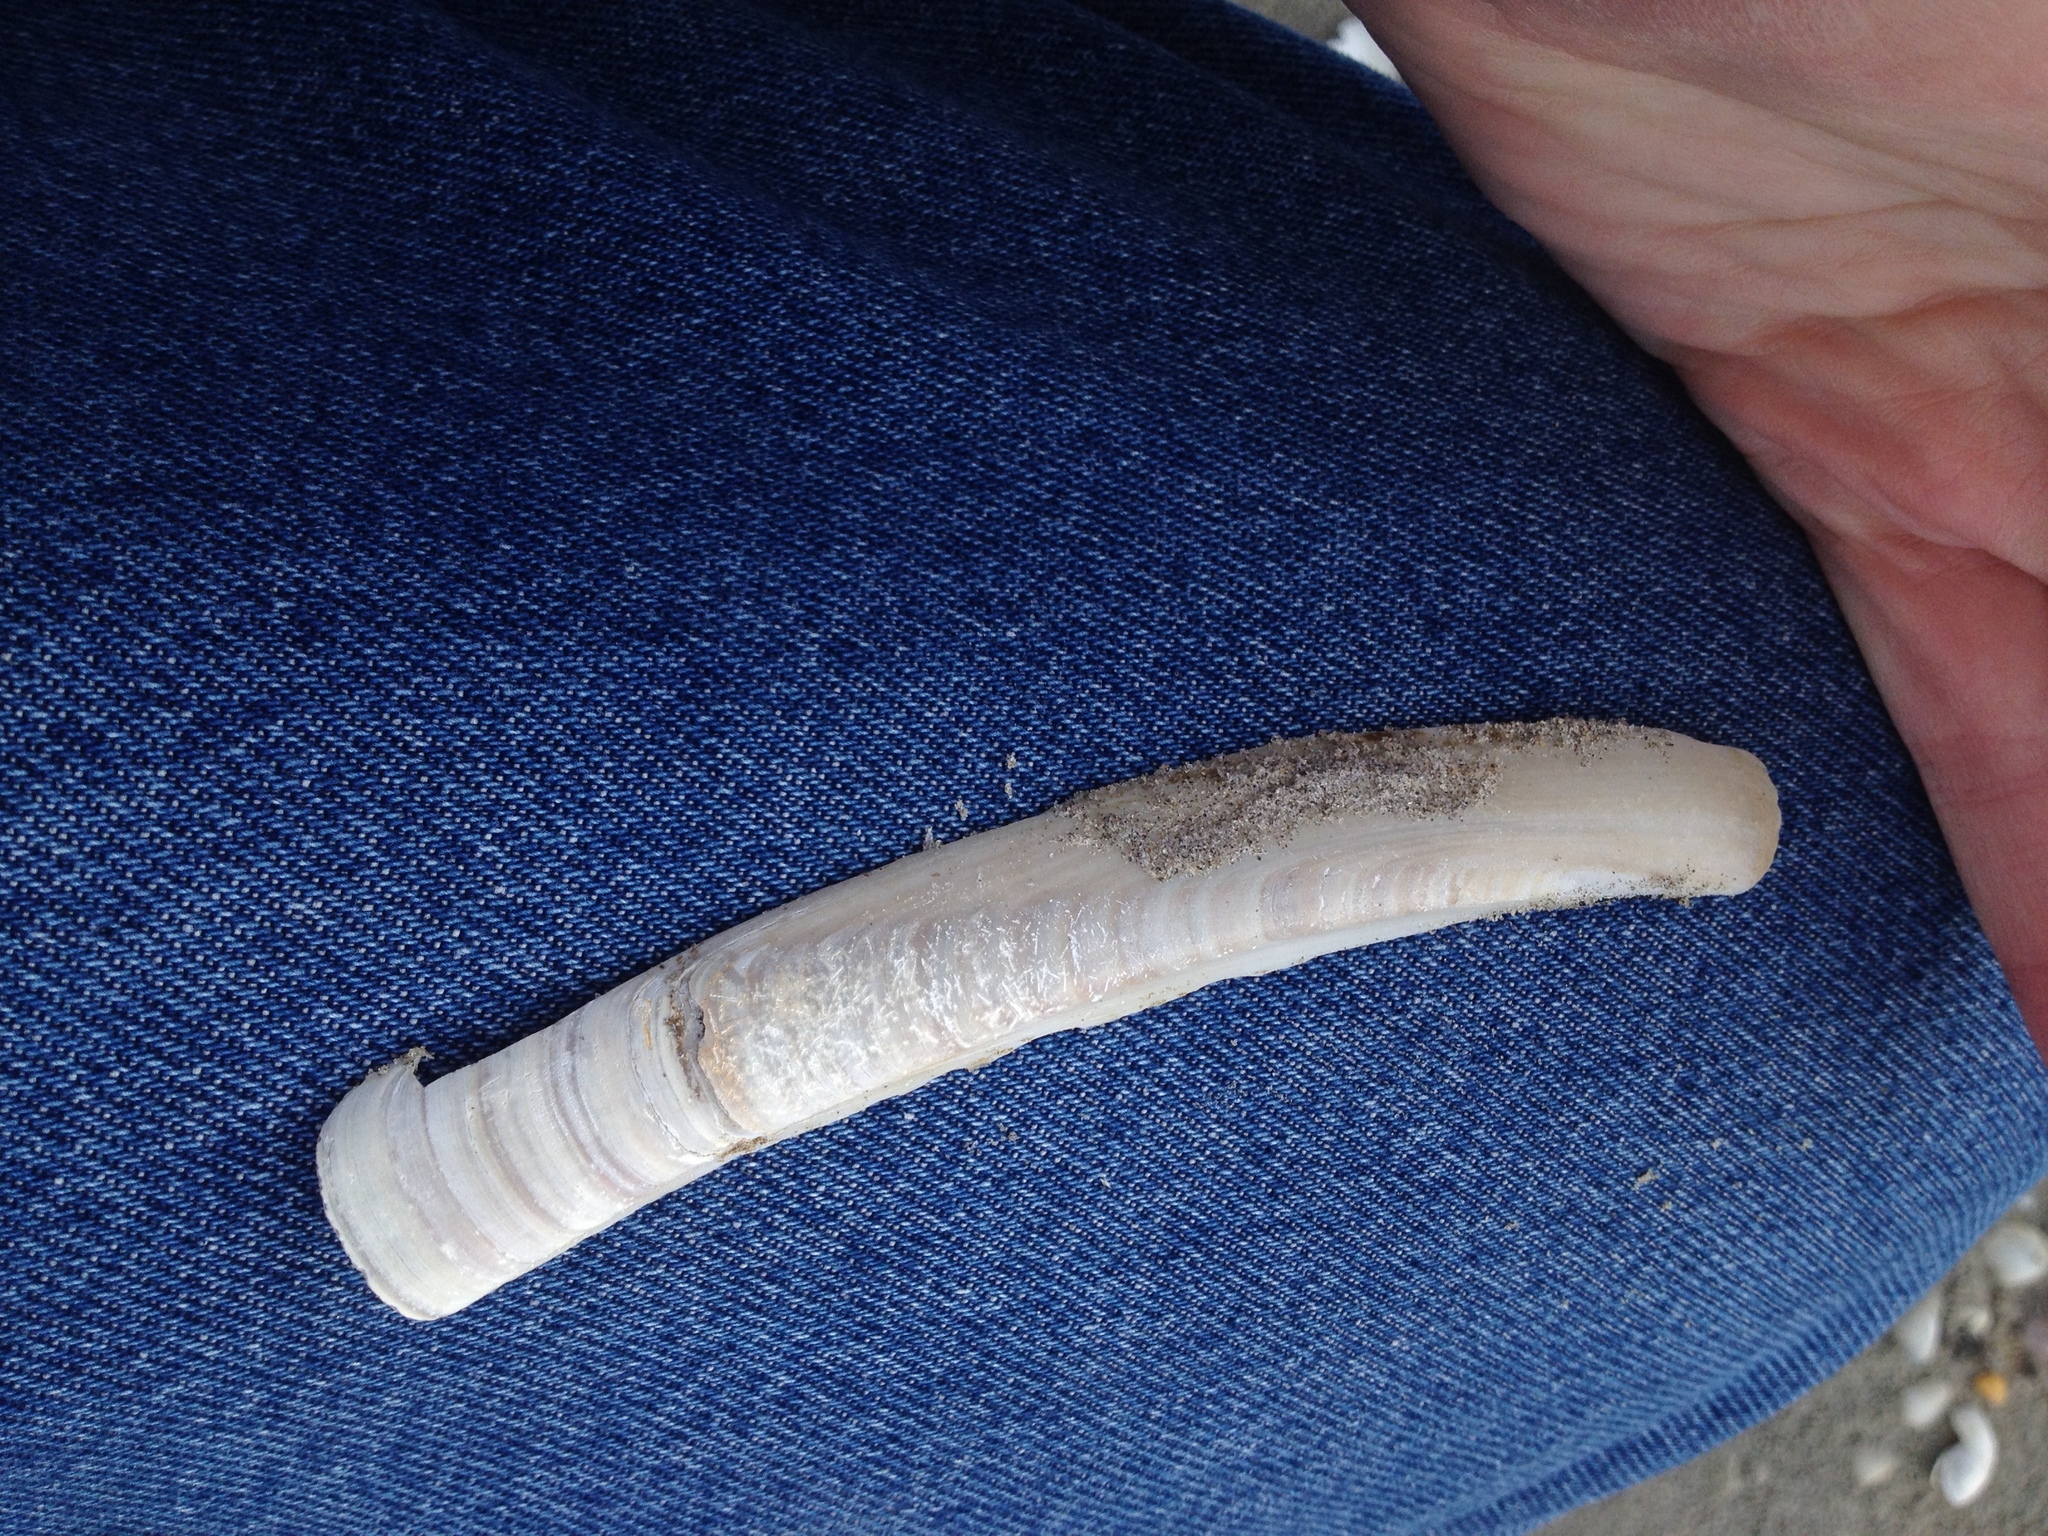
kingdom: Animalia
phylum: Mollusca
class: Bivalvia
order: Adapedonta
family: Pharidae
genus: Ensis
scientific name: Ensis leei
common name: American jack knife clam
